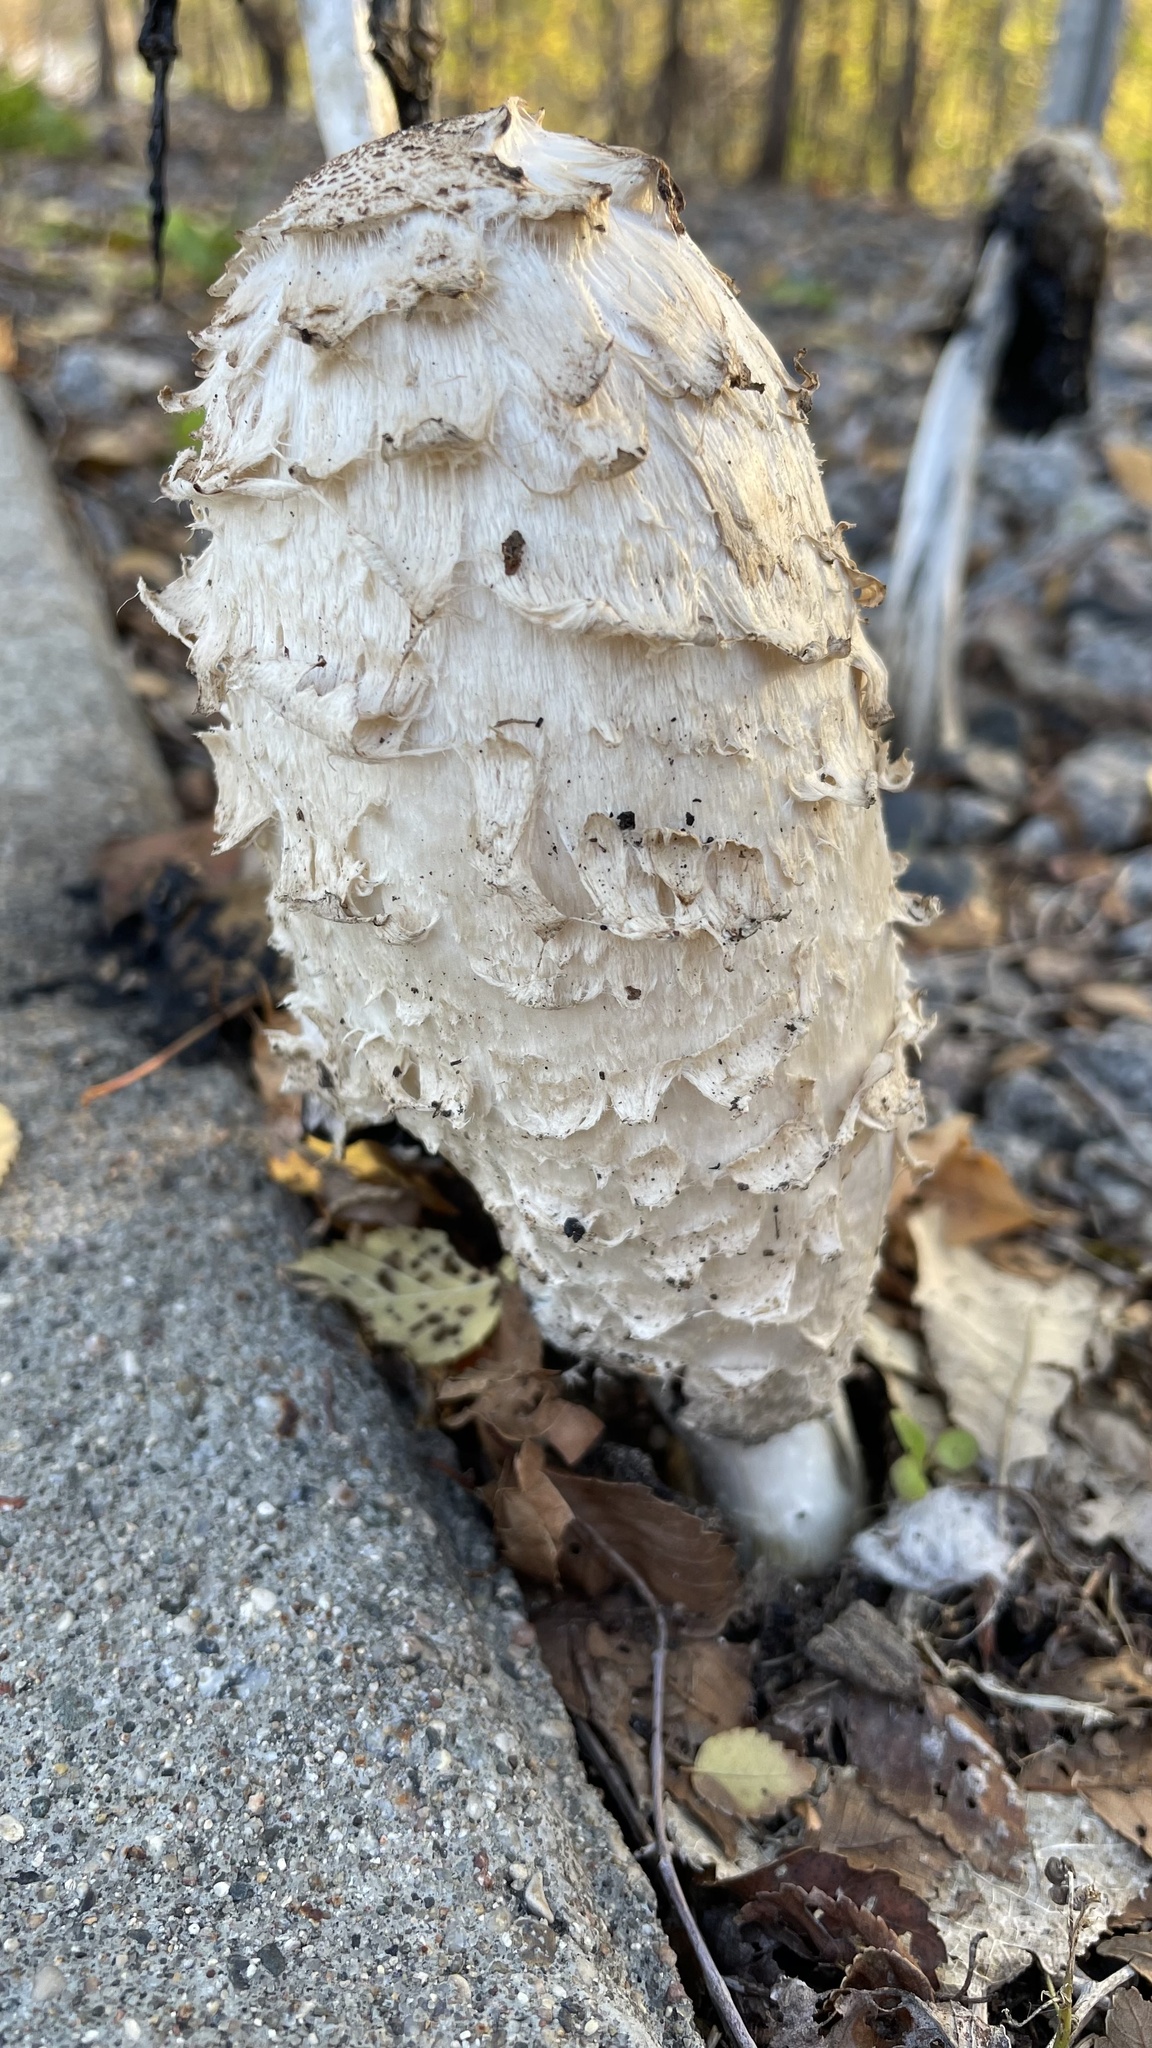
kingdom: Fungi
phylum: Basidiomycota
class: Agaricomycetes
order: Agaricales
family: Agaricaceae
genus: Coprinus
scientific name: Coprinus comatus
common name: Lawyer's wig
